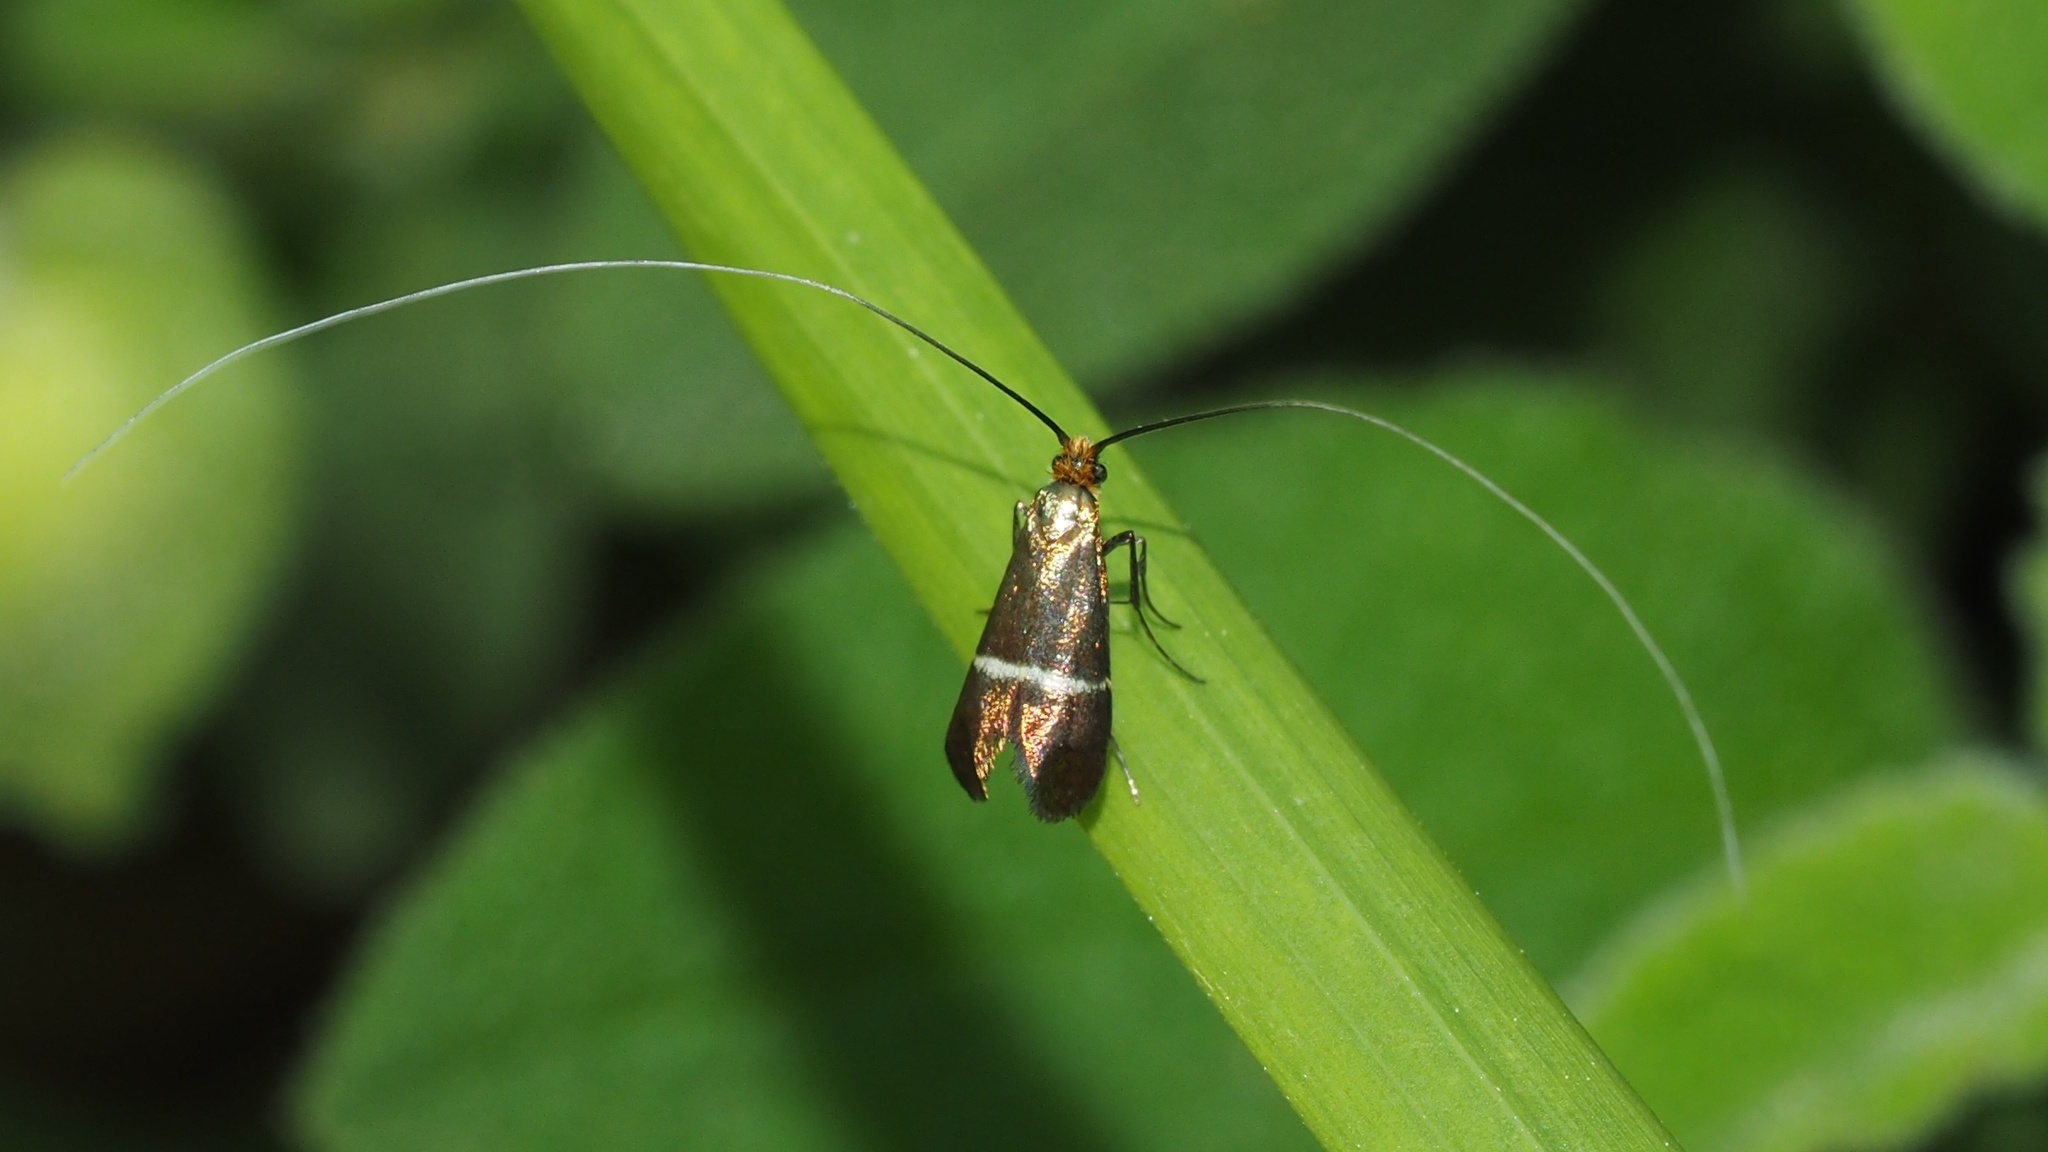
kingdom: Animalia
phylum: Arthropoda
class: Insecta
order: Lepidoptera
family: Adelidae
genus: Adela
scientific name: Adela australis
